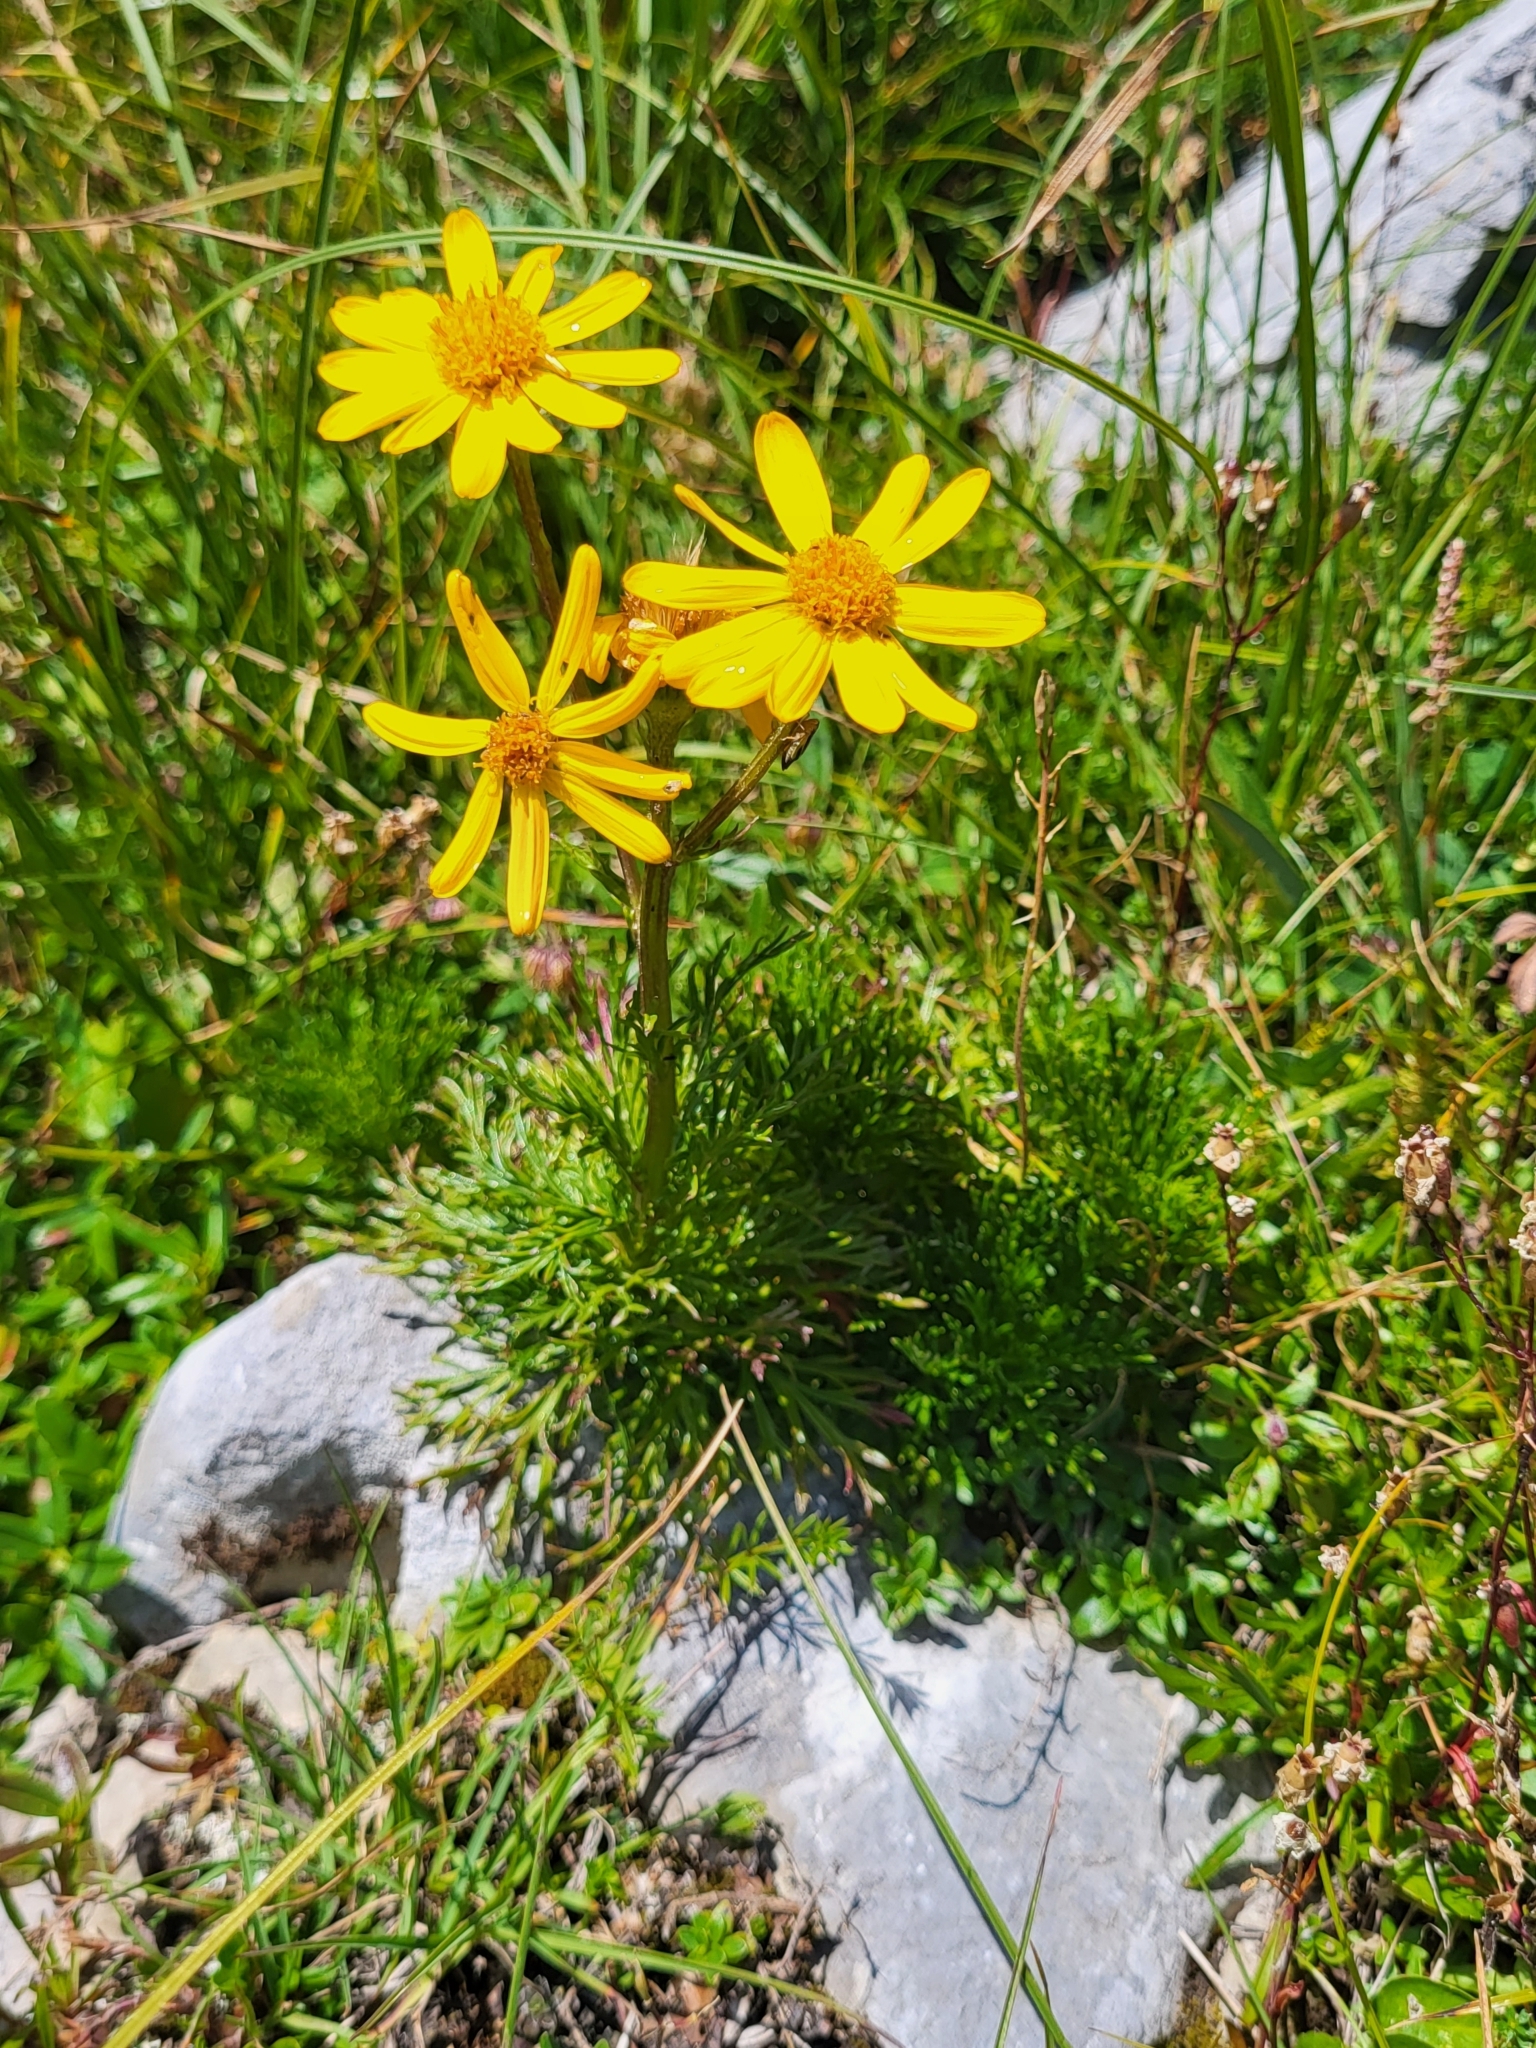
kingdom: Plantae
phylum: Tracheophyta
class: Magnoliopsida
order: Asterales
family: Asteraceae
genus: Jacobaea
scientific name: Jacobaea abrotanifolia
